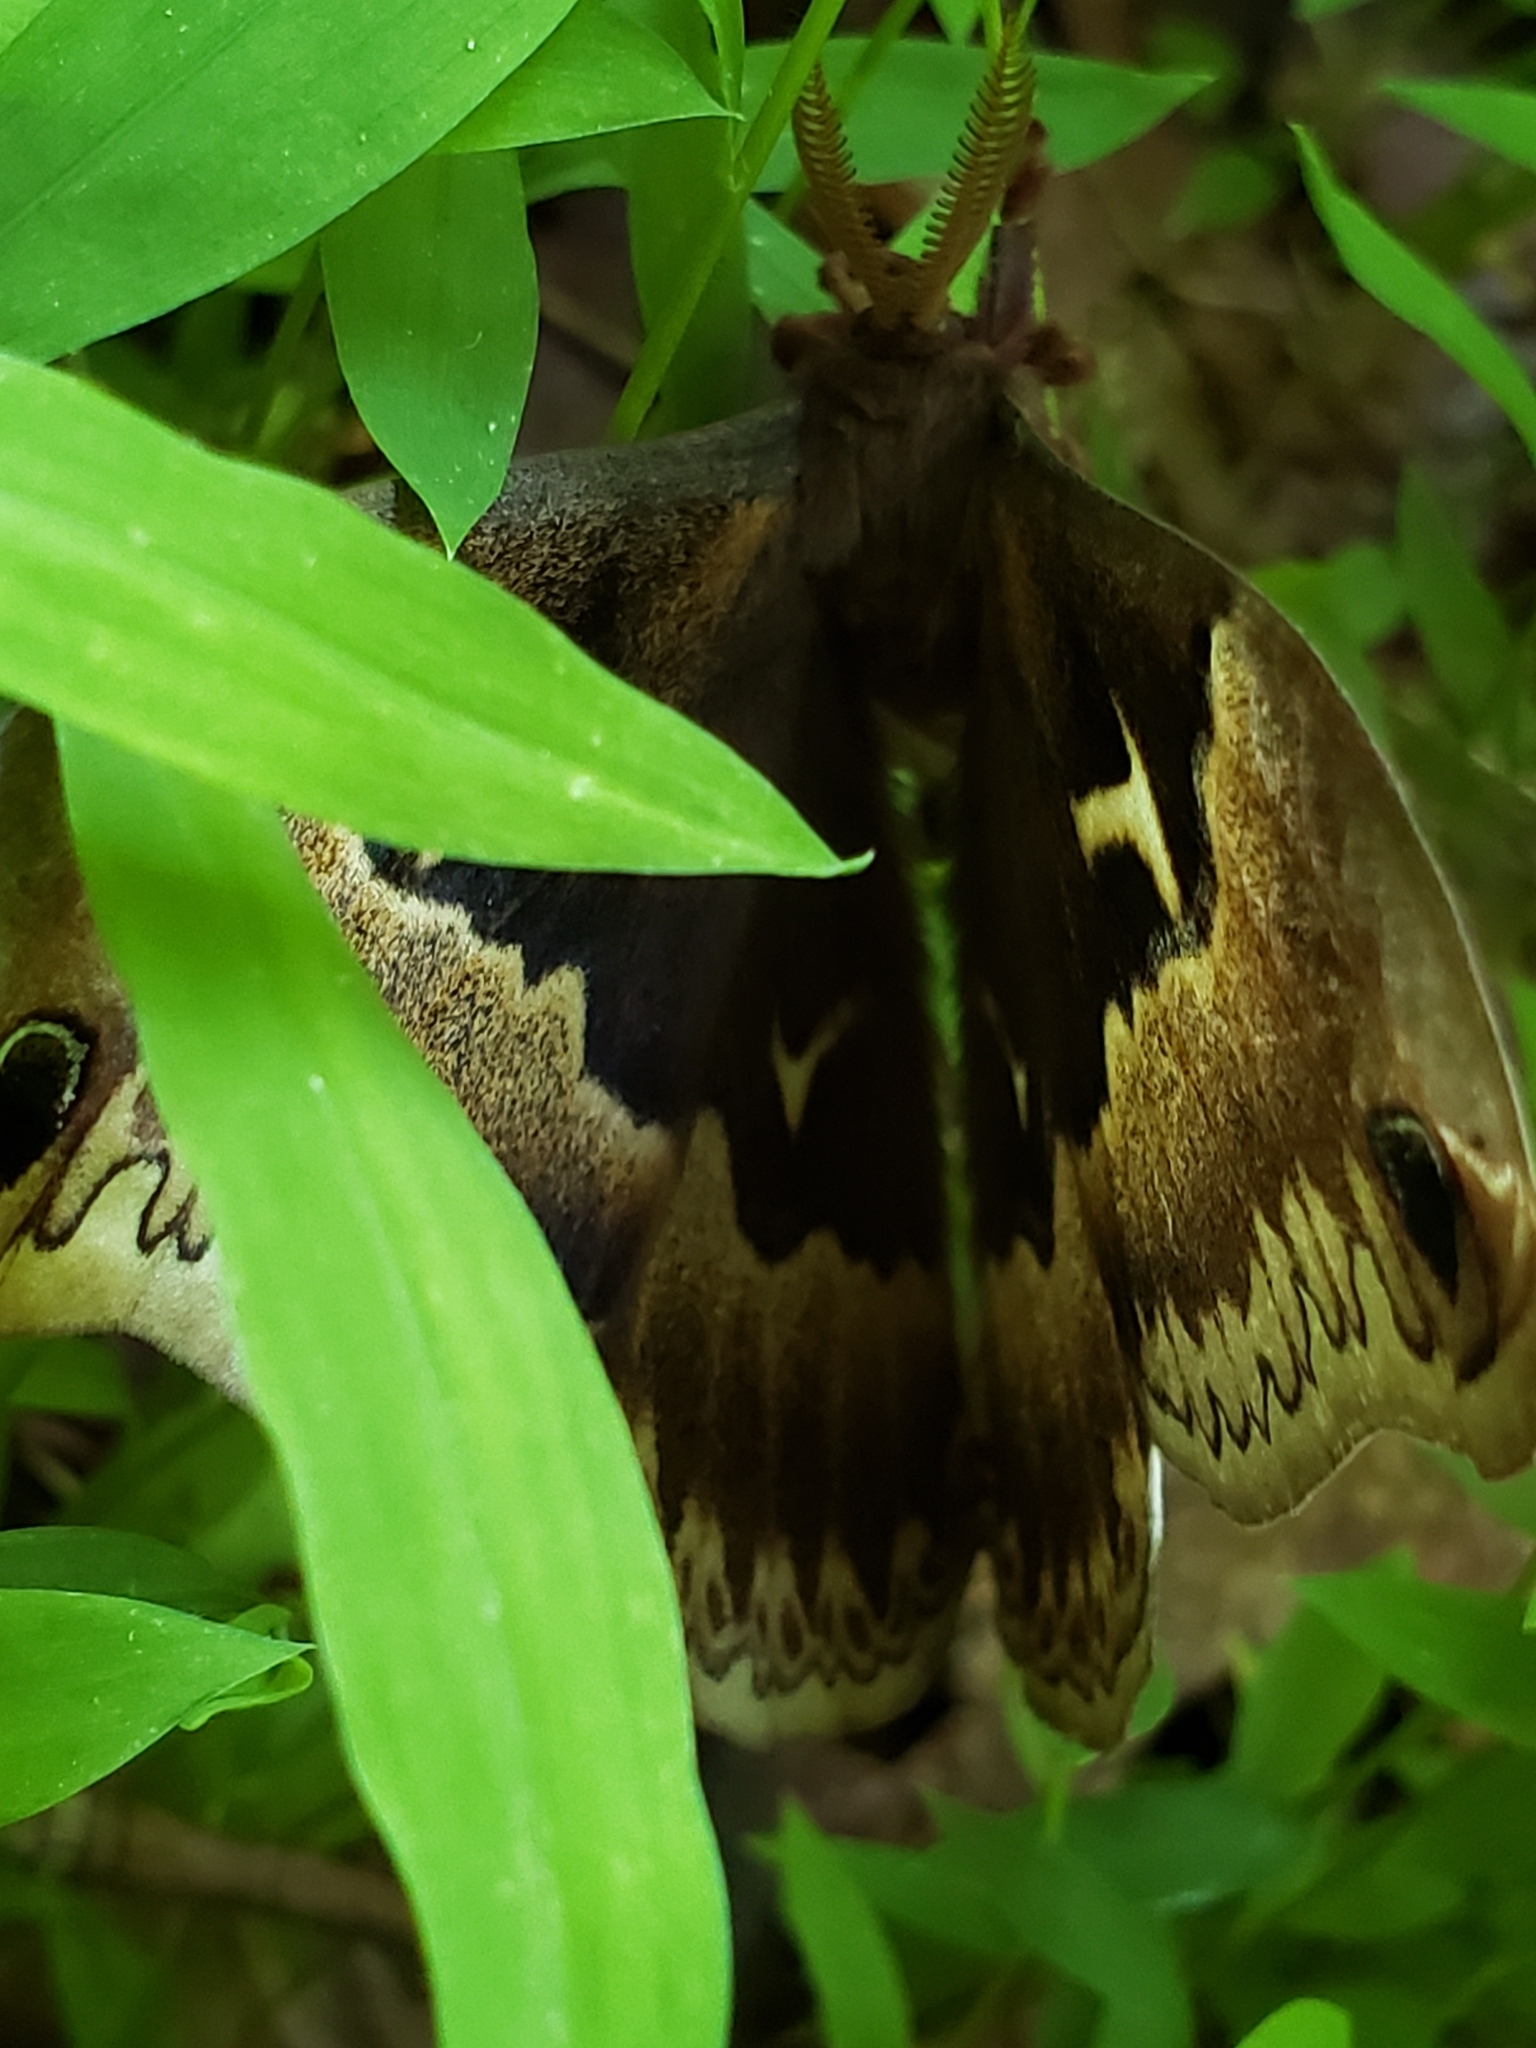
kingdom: Animalia
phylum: Arthropoda
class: Insecta
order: Lepidoptera
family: Saturniidae
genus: Callosamia
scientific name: Callosamia angulifera
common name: Tulip tree silkmoth
